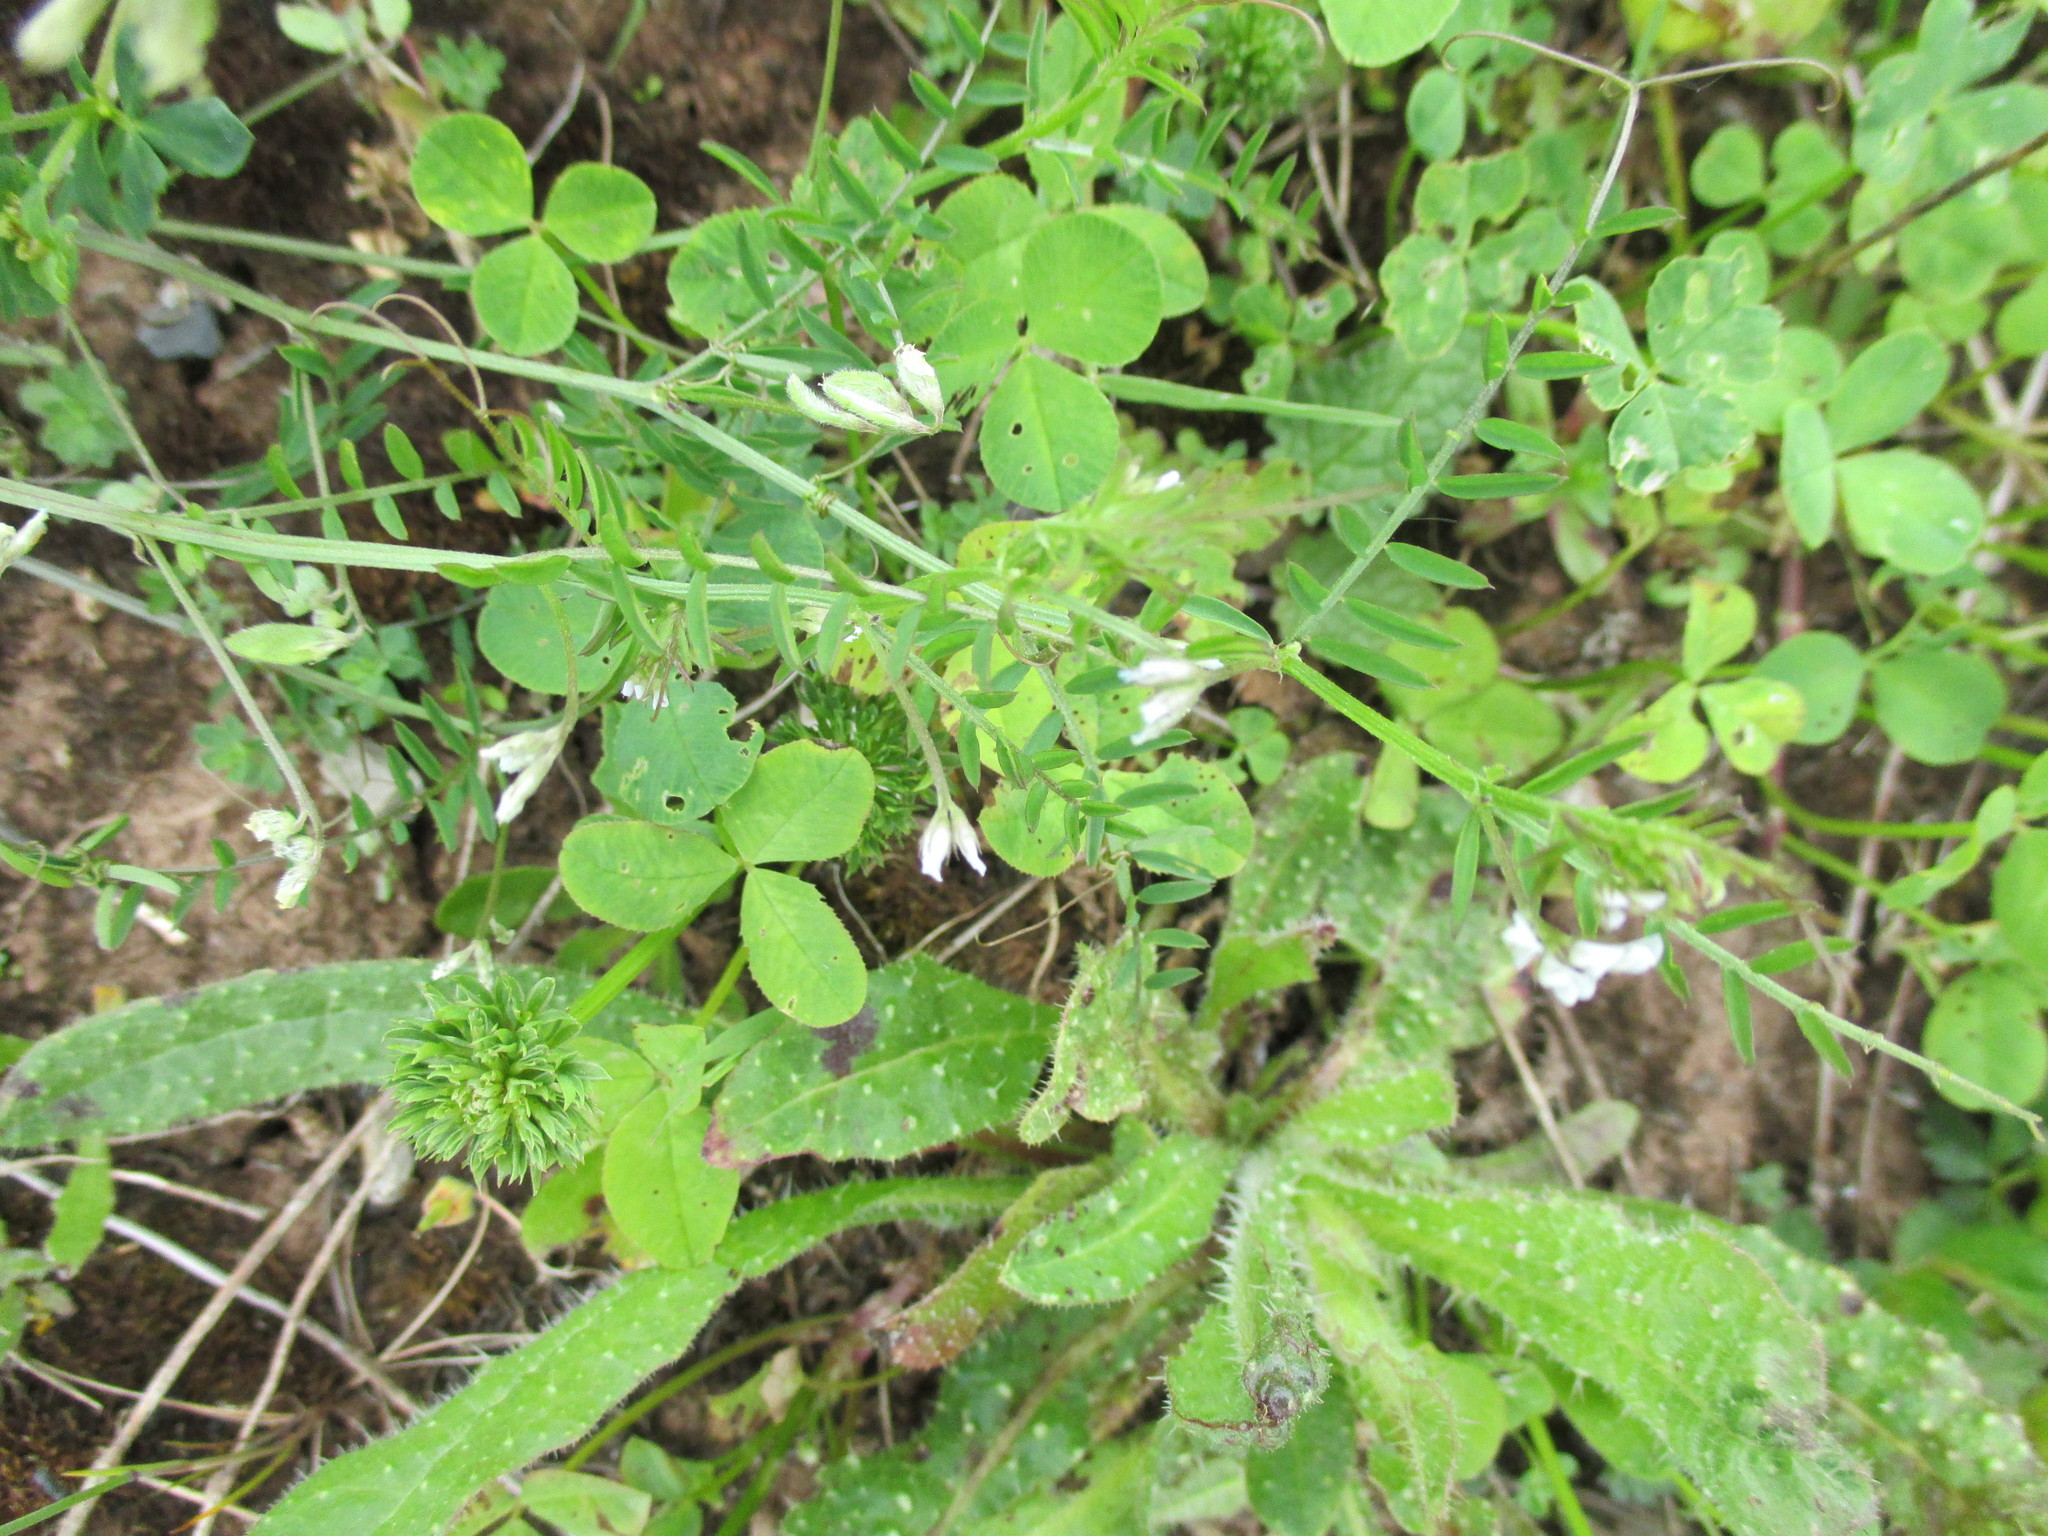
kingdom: Plantae
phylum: Tracheophyta
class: Magnoliopsida
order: Fabales
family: Fabaceae
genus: Vicia
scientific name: Vicia hirsuta
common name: Tiny vetch
